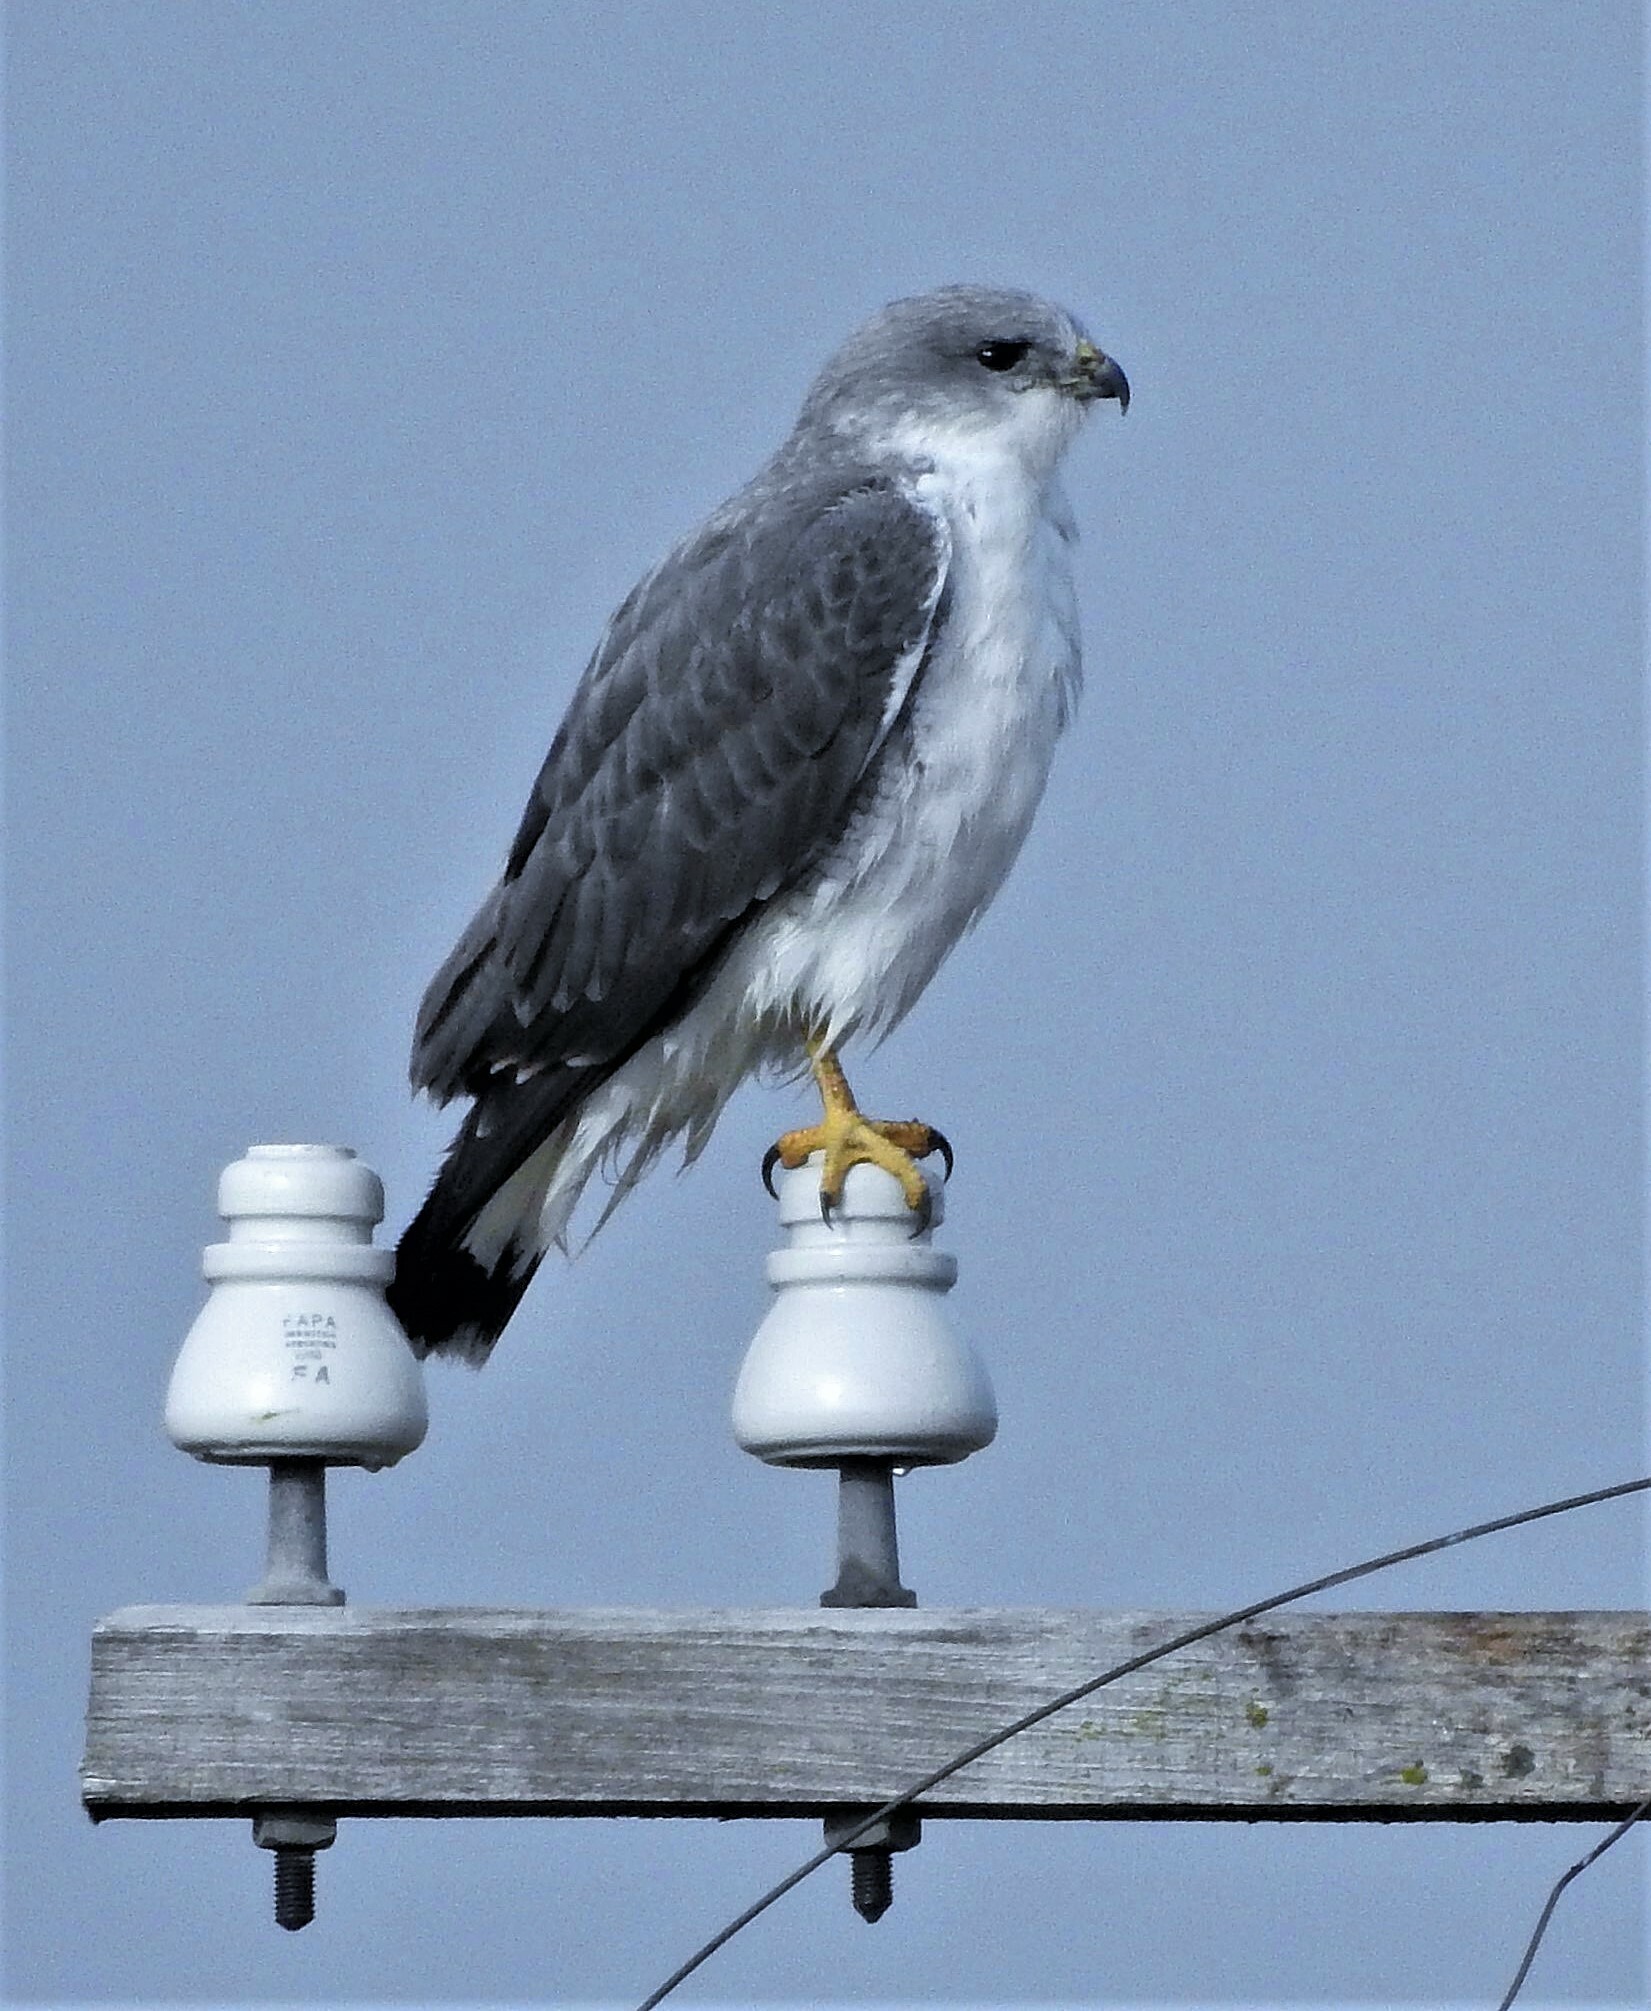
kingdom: Animalia
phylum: Chordata
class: Aves
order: Accipitriformes
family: Accipitridae
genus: Buteo
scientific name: Buteo polyosoma
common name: Variable hawk
